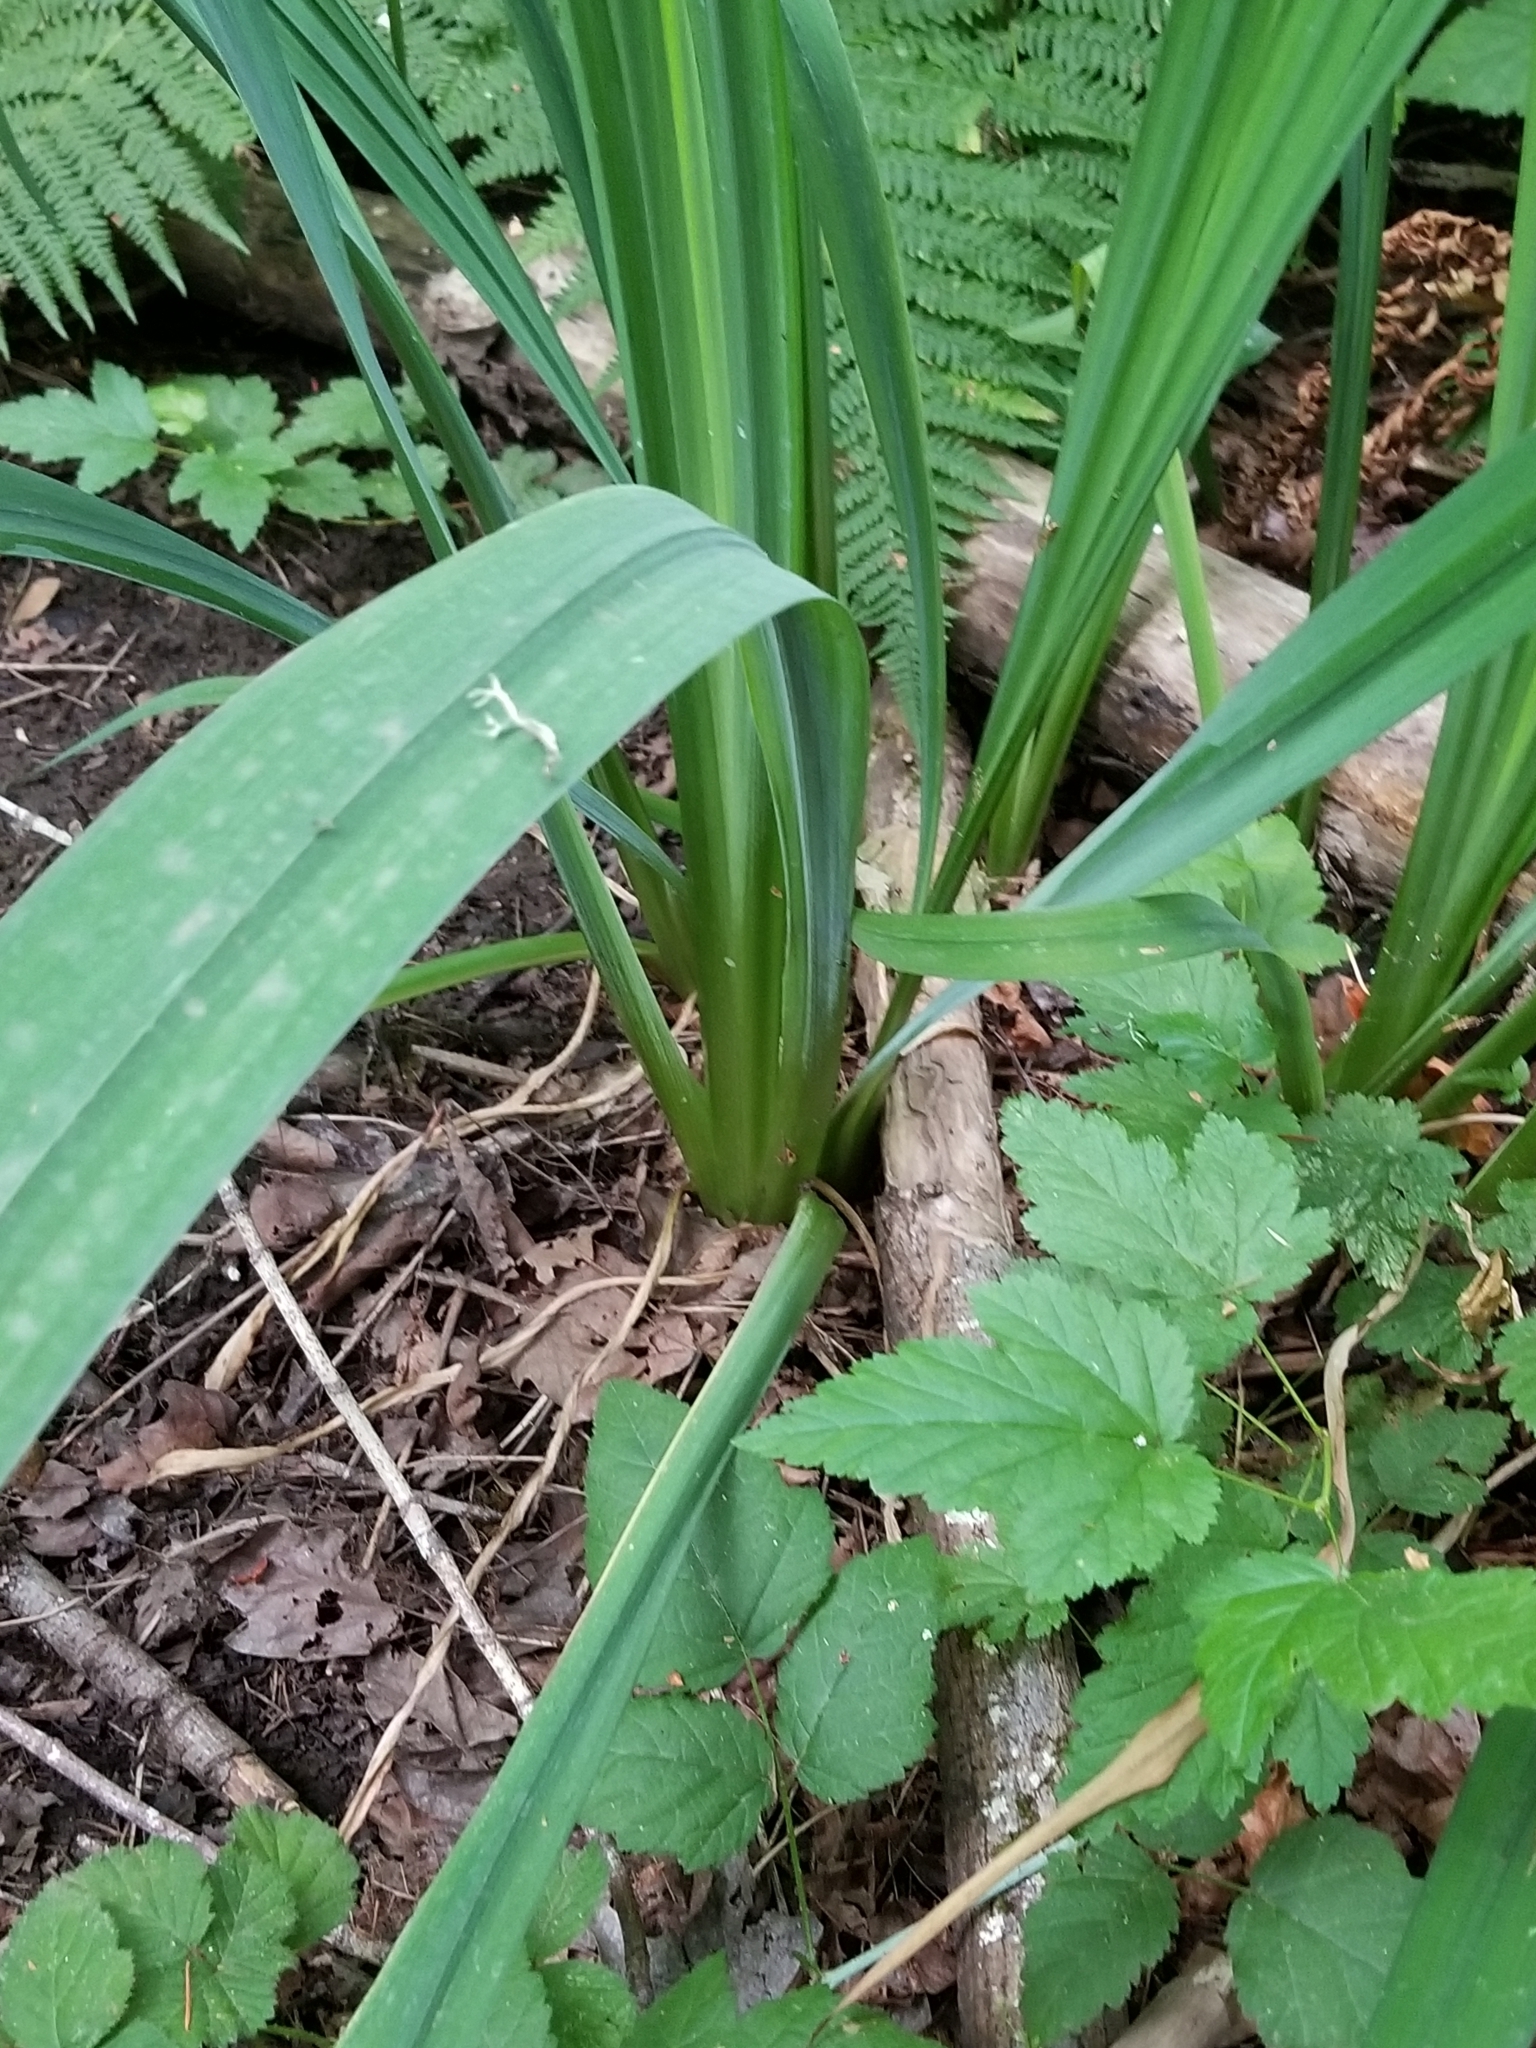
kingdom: Plantae
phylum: Tracheophyta
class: Liliopsida
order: Asparagales
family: Iridaceae
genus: Iris
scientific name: Iris pseudacorus
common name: Yellow flag
